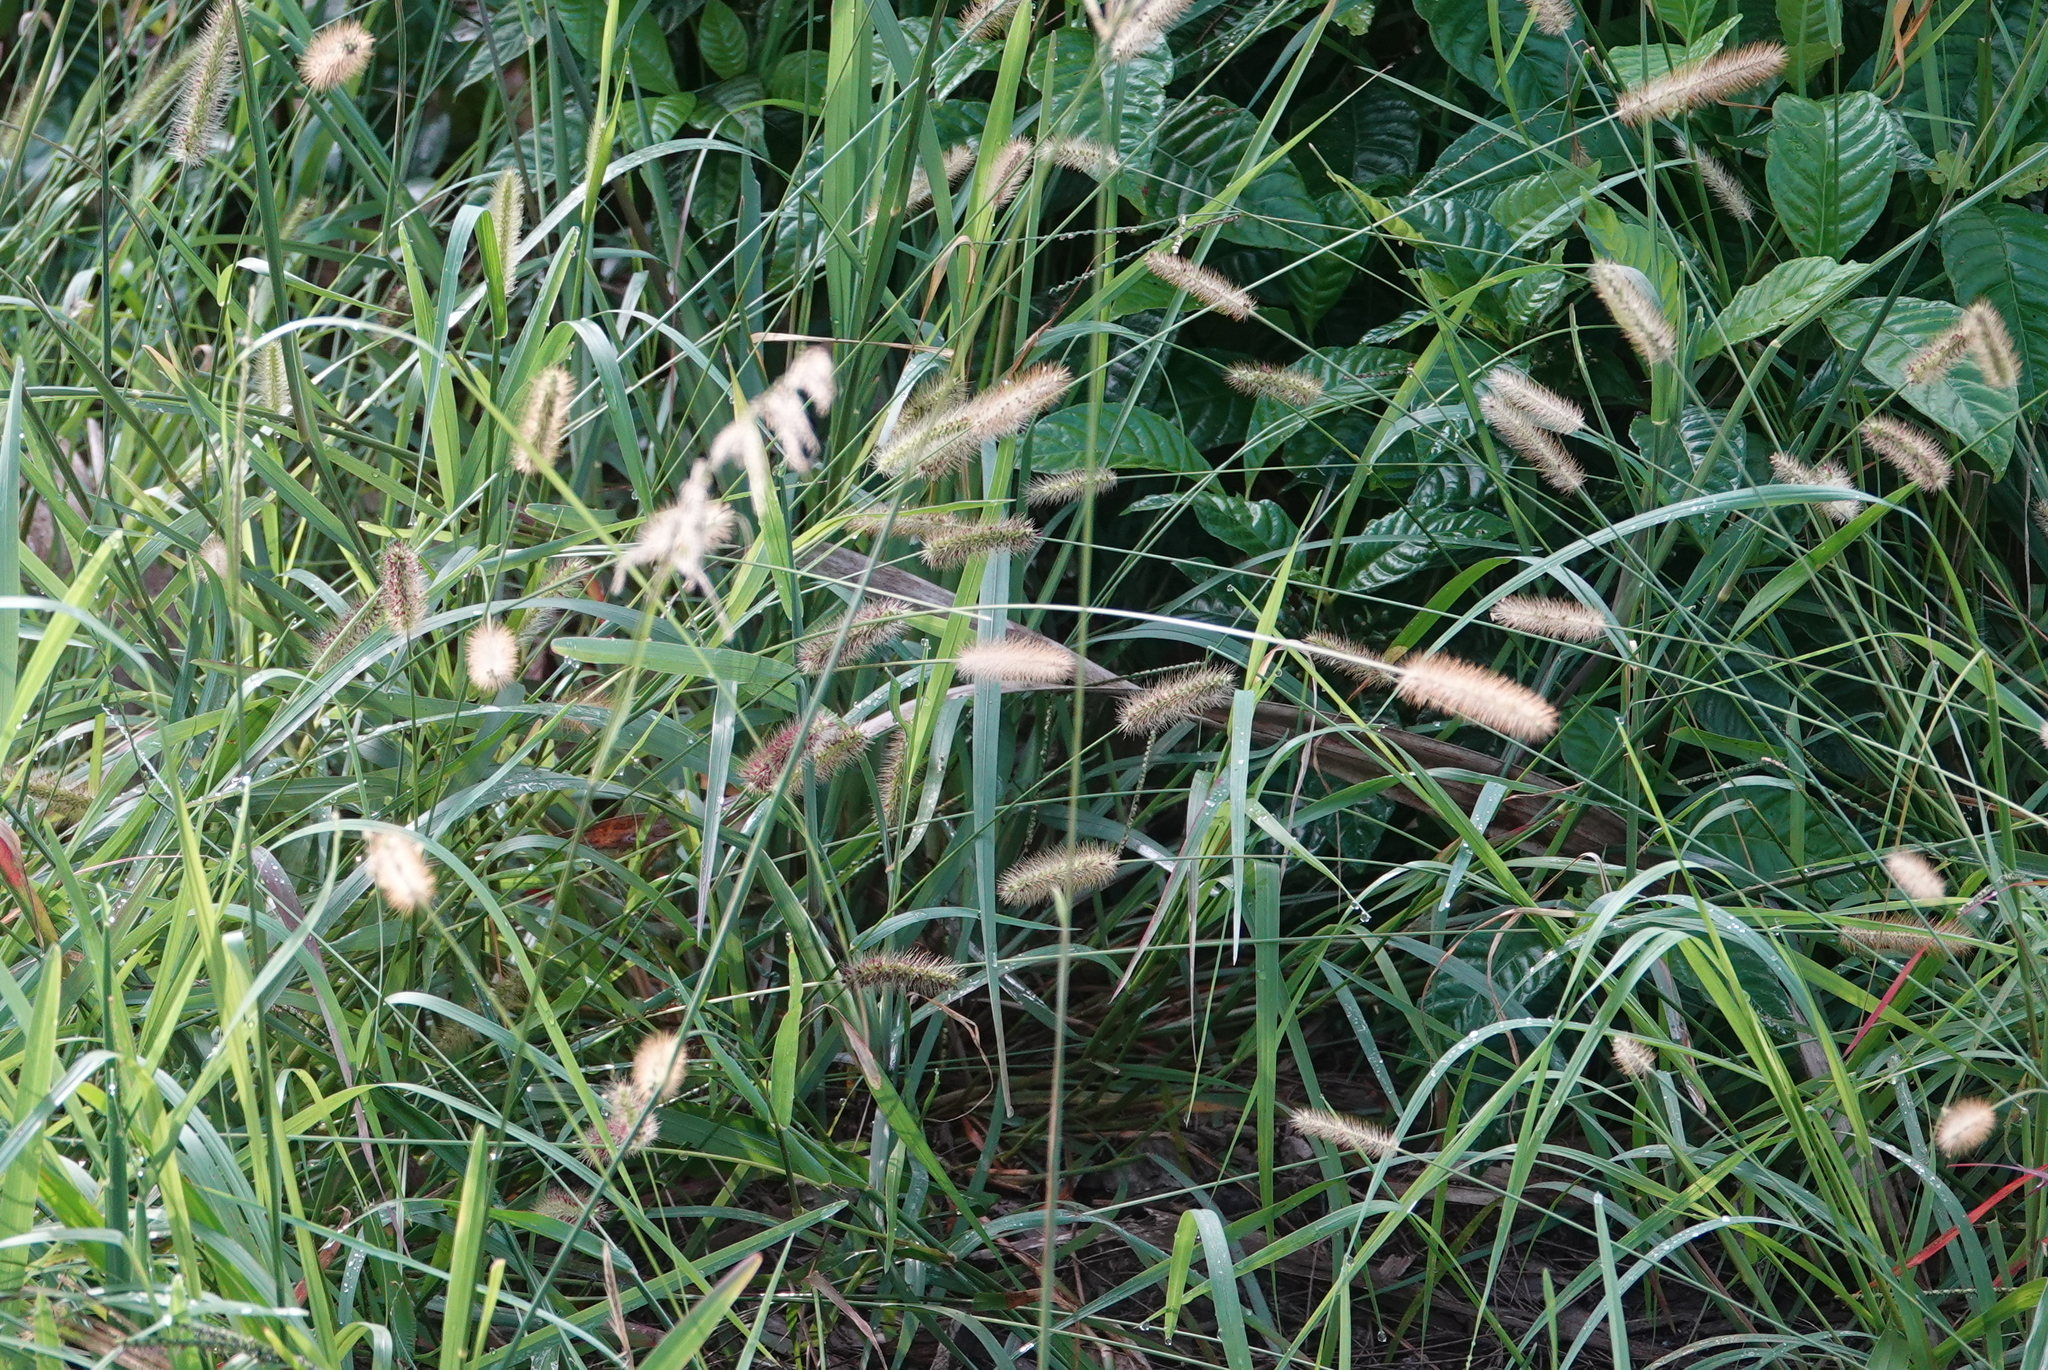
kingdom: Plantae
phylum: Tracheophyta
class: Liliopsida
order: Poales
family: Poaceae
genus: Setaria
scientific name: Setaria parviflora
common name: Knotroot bristle-grass
